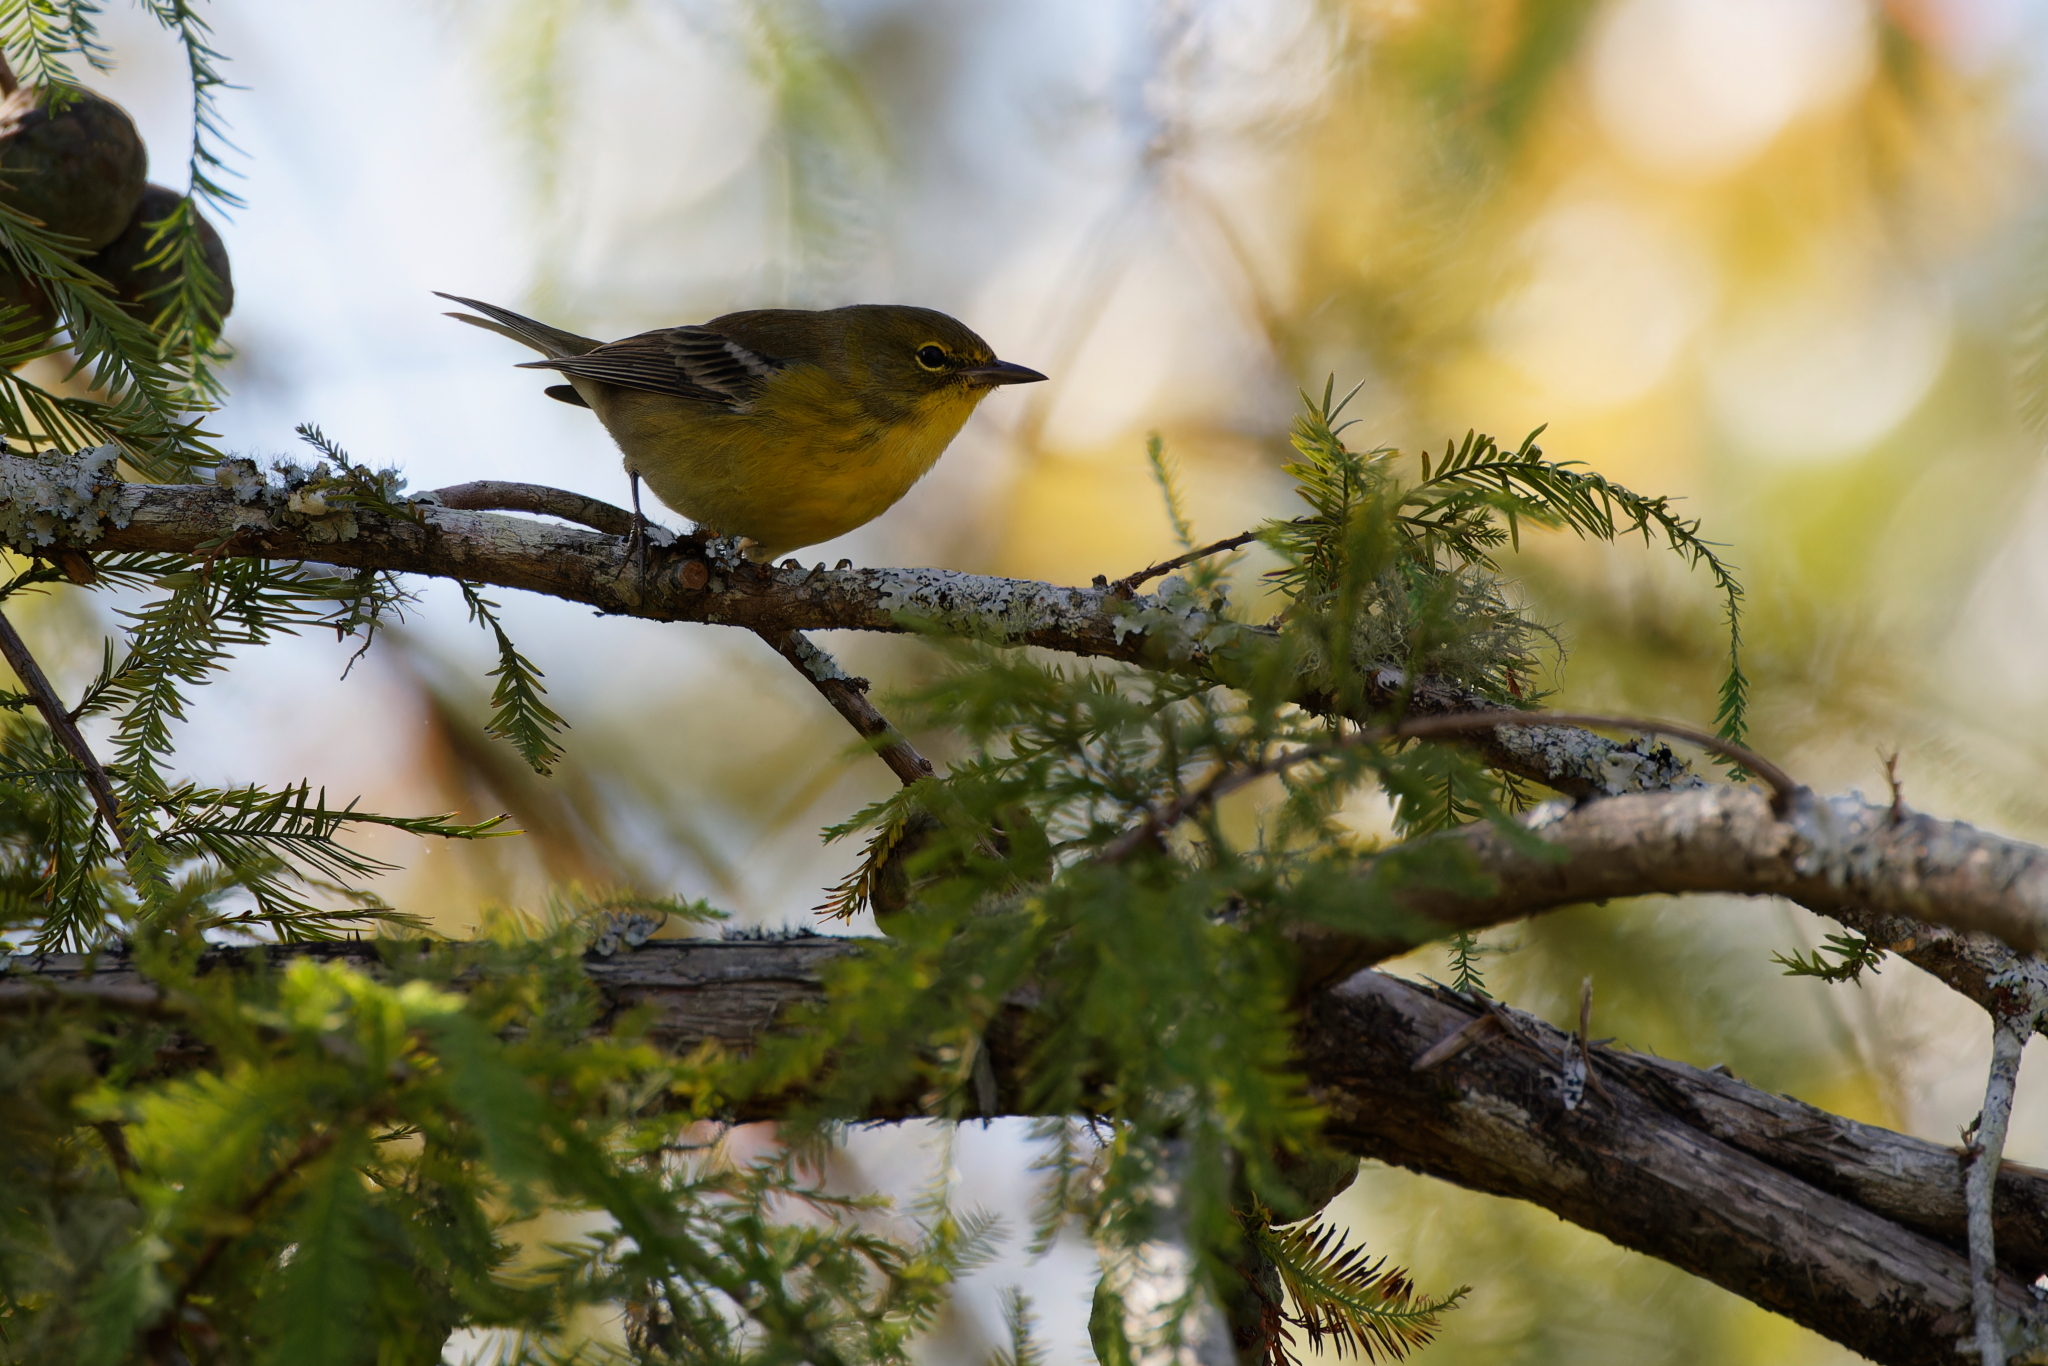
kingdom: Animalia
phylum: Chordata
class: Aves
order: Passeriformes
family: Parulidae
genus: Setophaga
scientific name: Setophaga pinus
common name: Pine warbler
